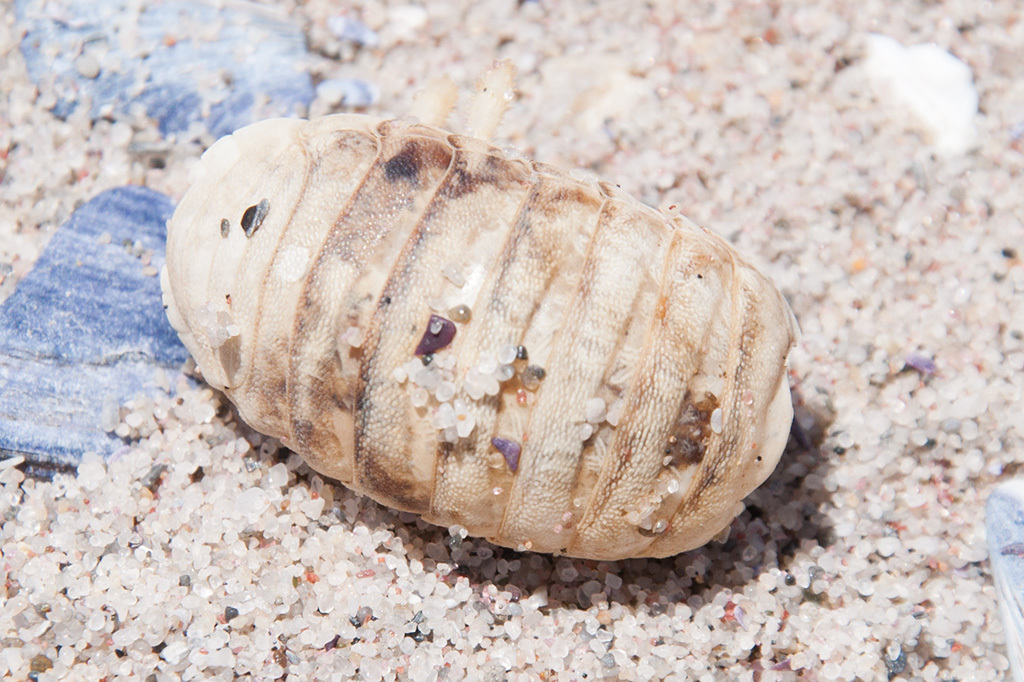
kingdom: Animalia
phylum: Arthropoda
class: Malacostraca
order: Isopoda
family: Tylidae
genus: Tylos
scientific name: Tylos granulatus
